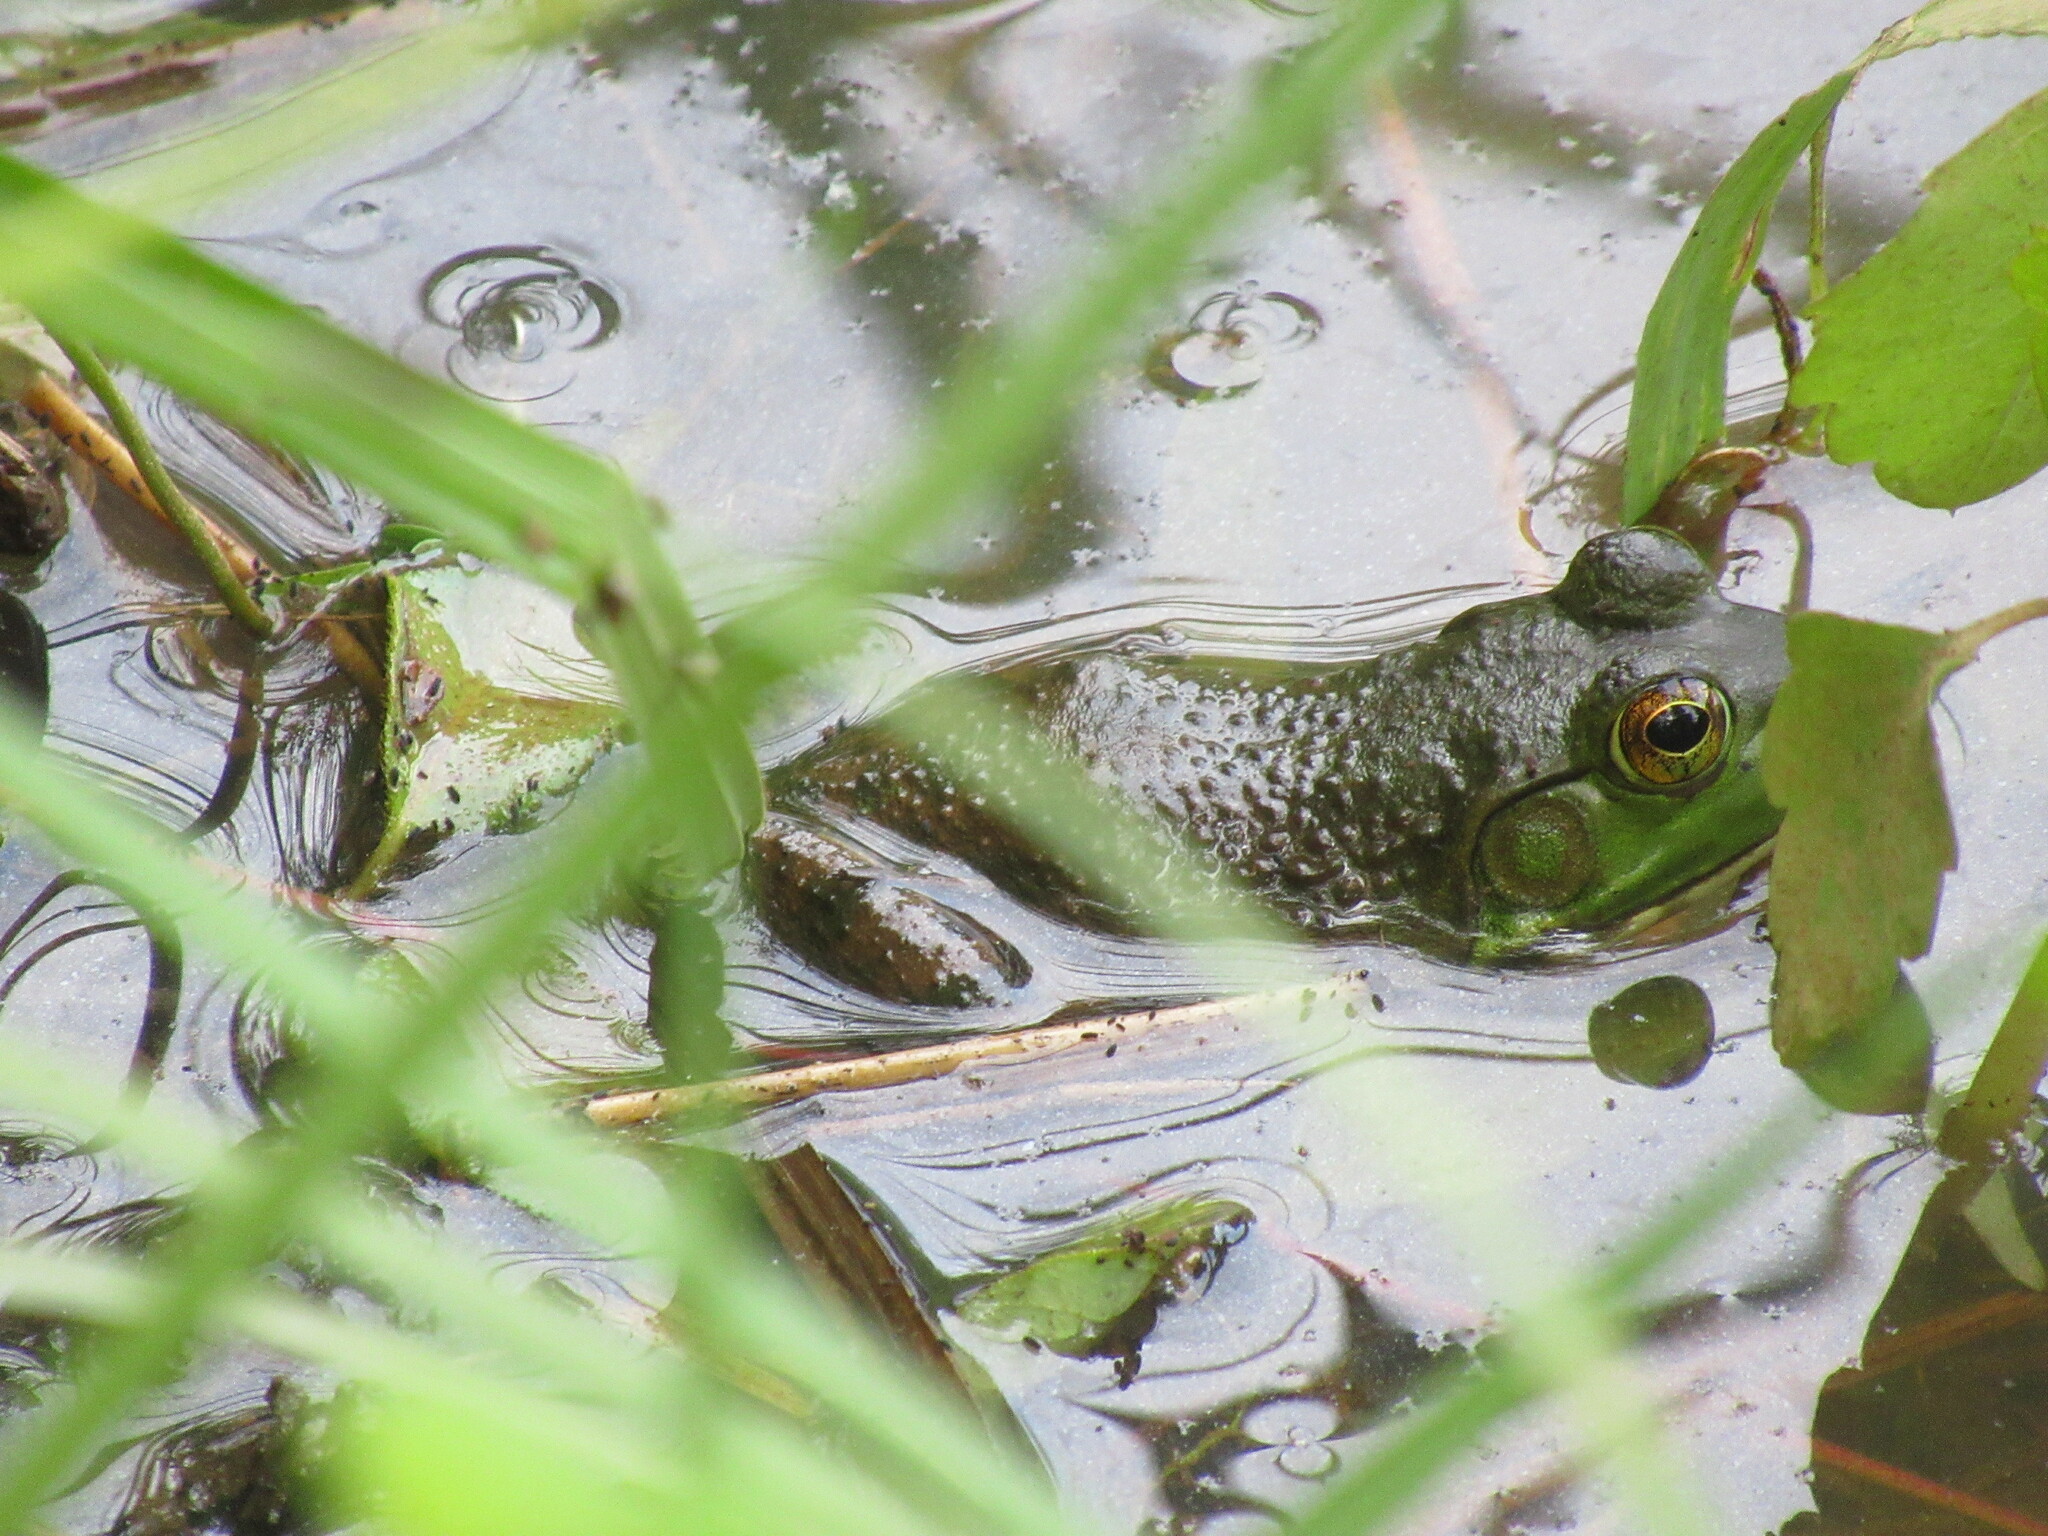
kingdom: Animalia
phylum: Chordata
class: Amphibia
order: Anura
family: Ranidae
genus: Lithobates
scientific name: Lithobates clamitans
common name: Green frog
